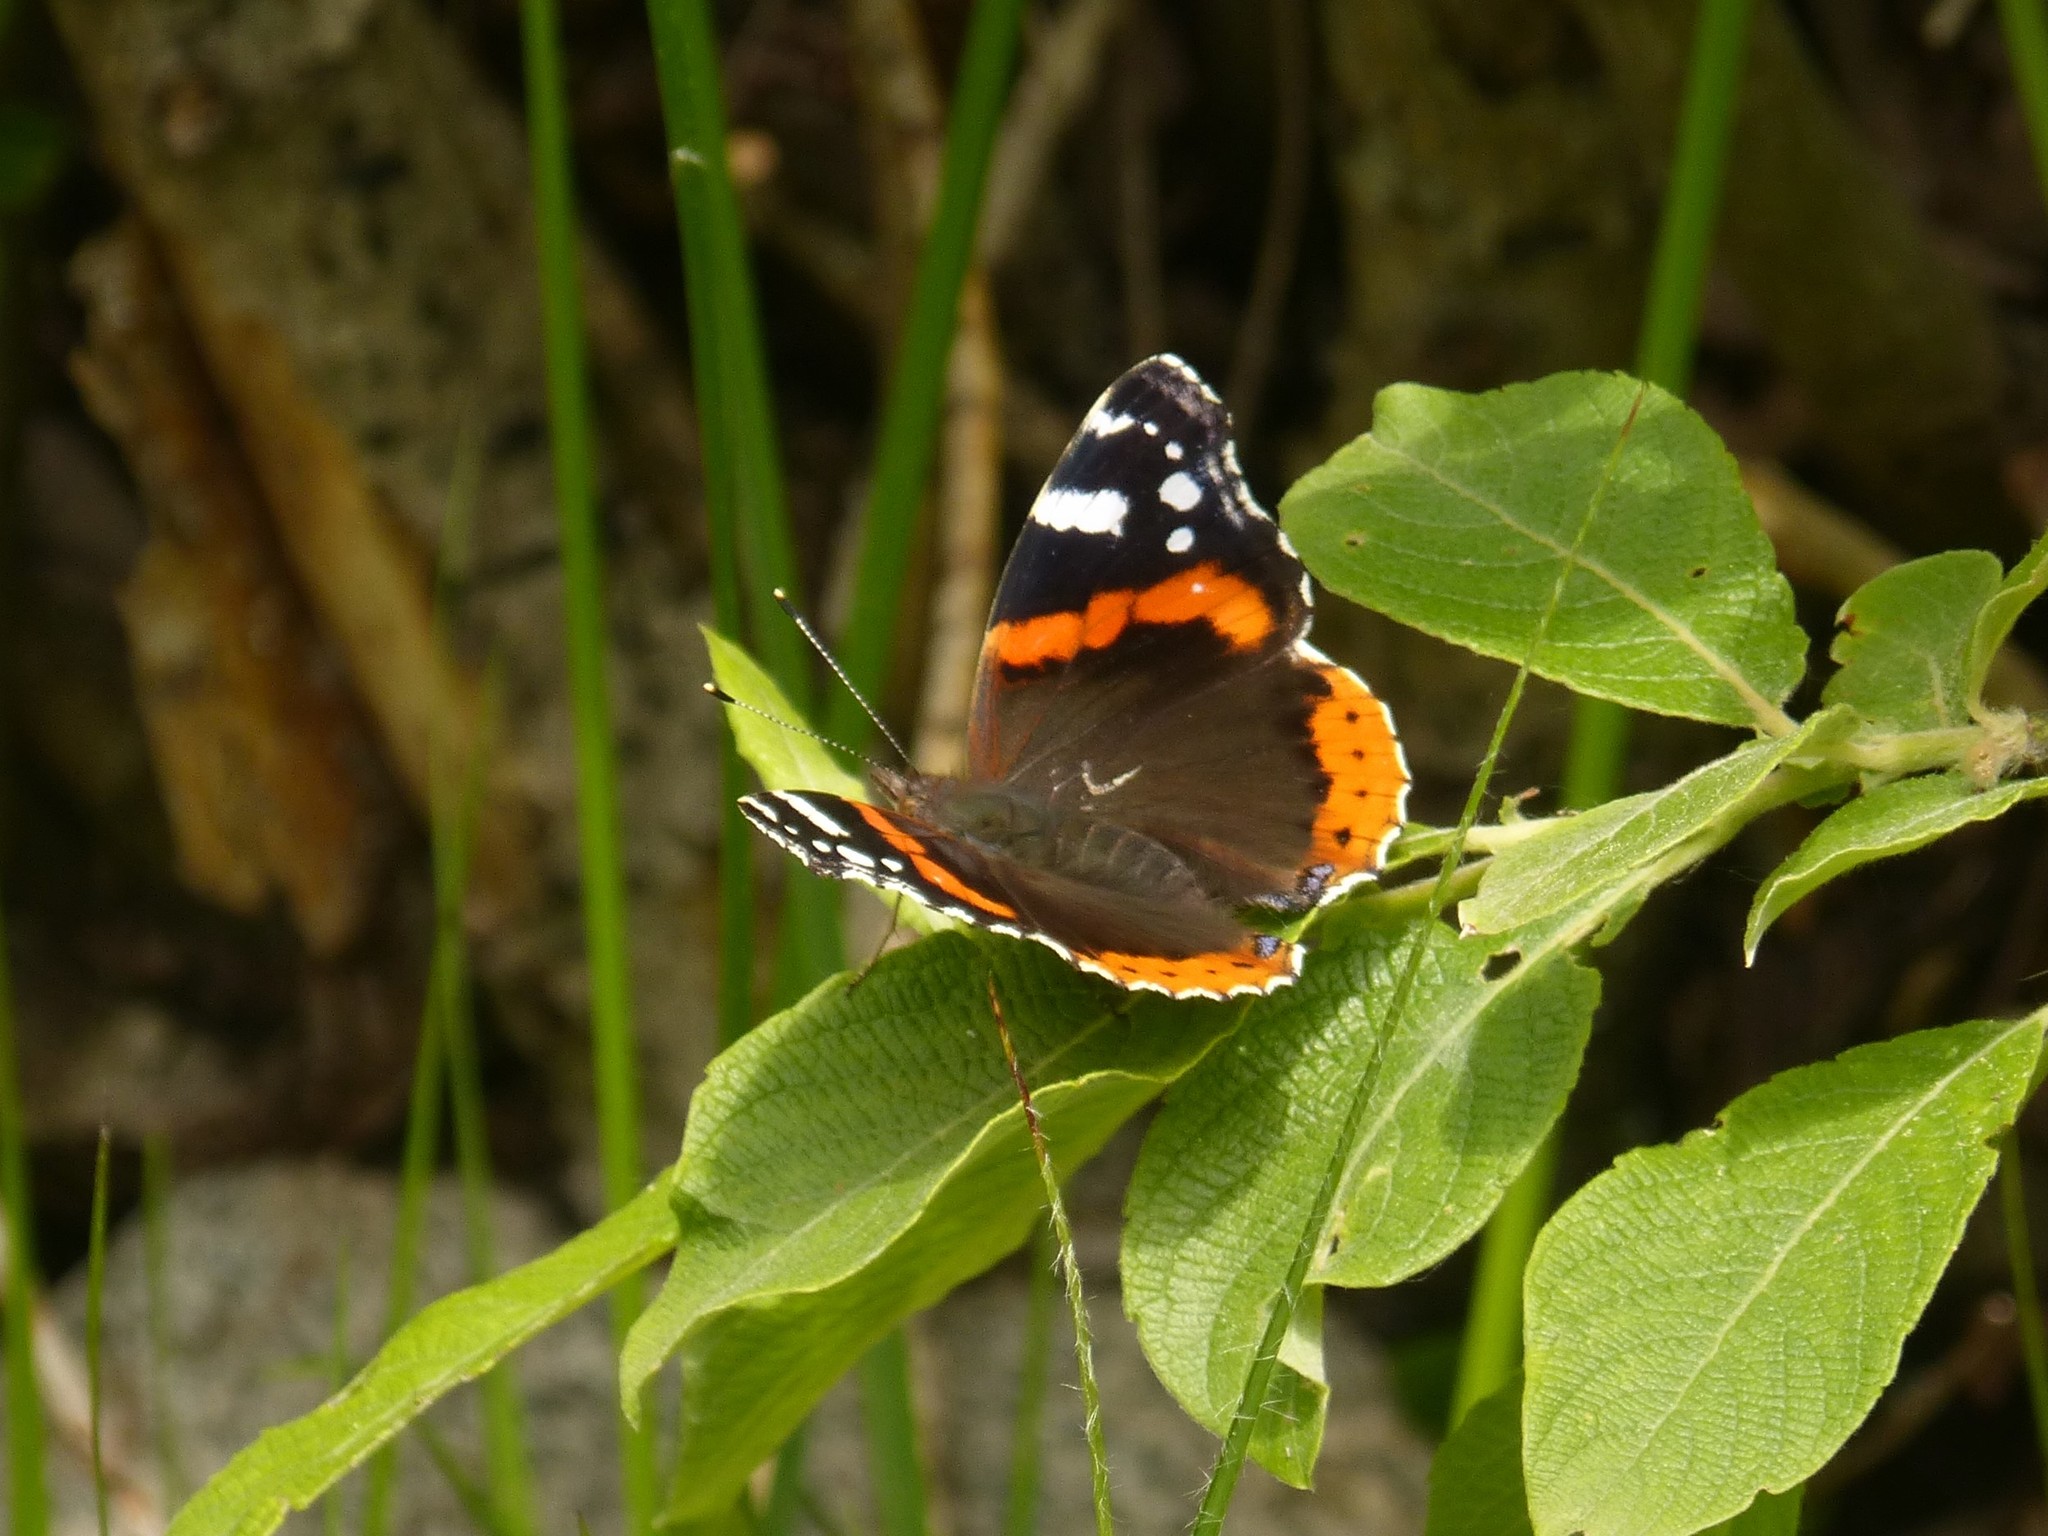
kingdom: Animalia
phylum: Arthropoda
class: Insecta
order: Lepidoptera
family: Nymphalidae
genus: Vanessa
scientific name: Vanessa atalanta
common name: Red admiral
